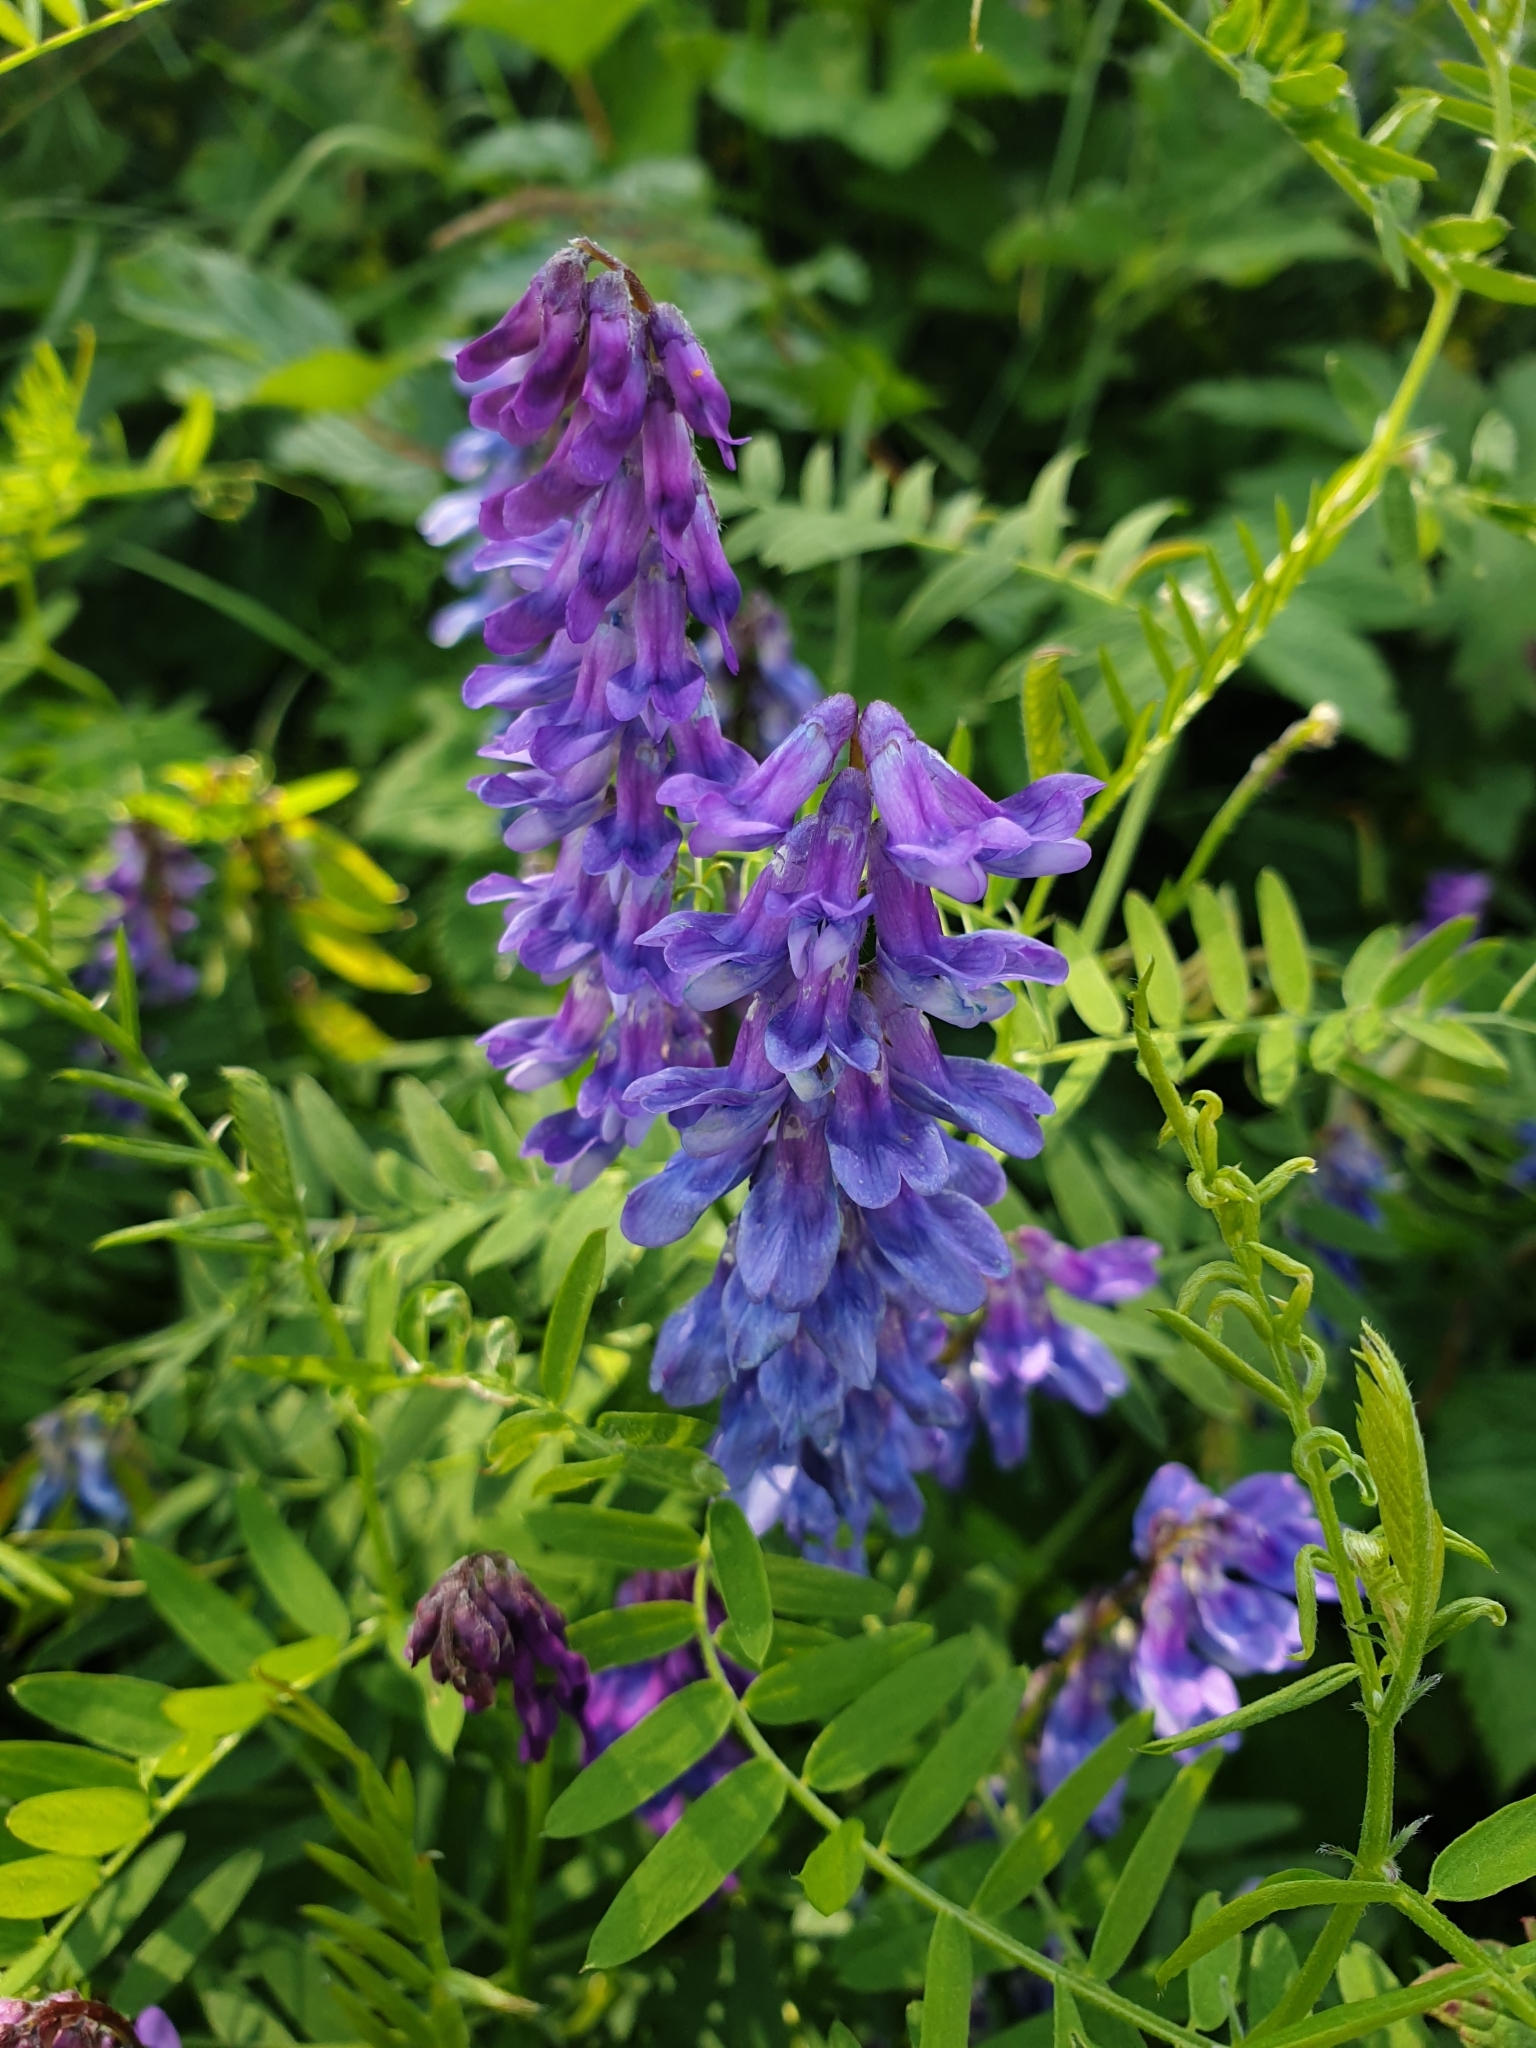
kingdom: Plantae
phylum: Tracheophyta
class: Magnoliopsida
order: Fabales
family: Fabaceae
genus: Vicia
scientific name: Vicia cracca
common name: Bird vetch
